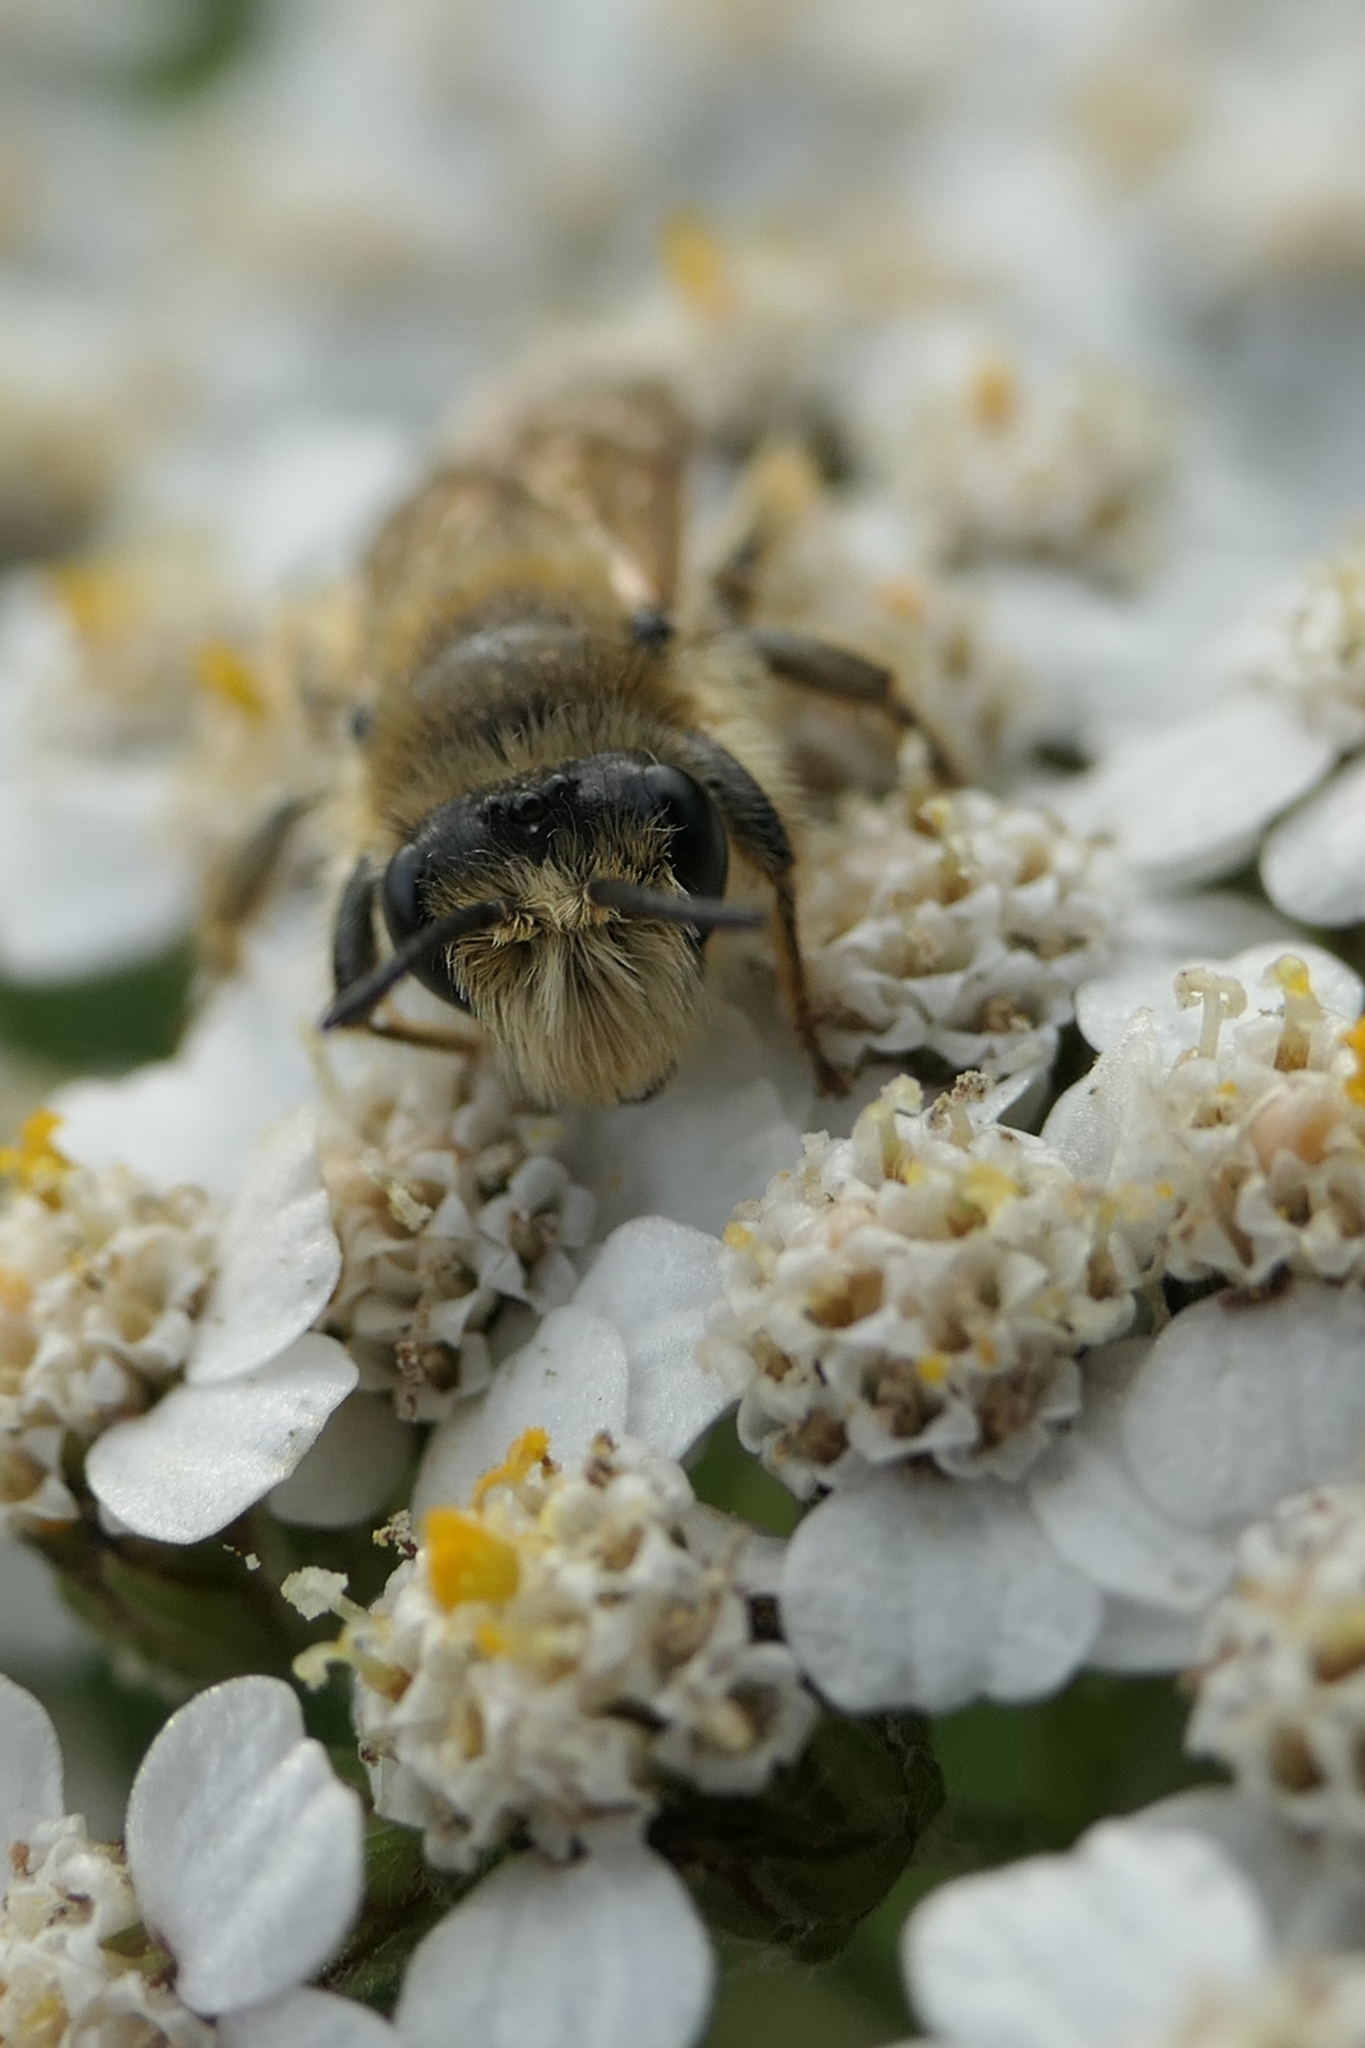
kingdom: Animalia
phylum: Arthropoda
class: Insecta
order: Hymenoptera
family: Colletidae
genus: Leioproctus
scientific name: Leioproctus fulvescens
